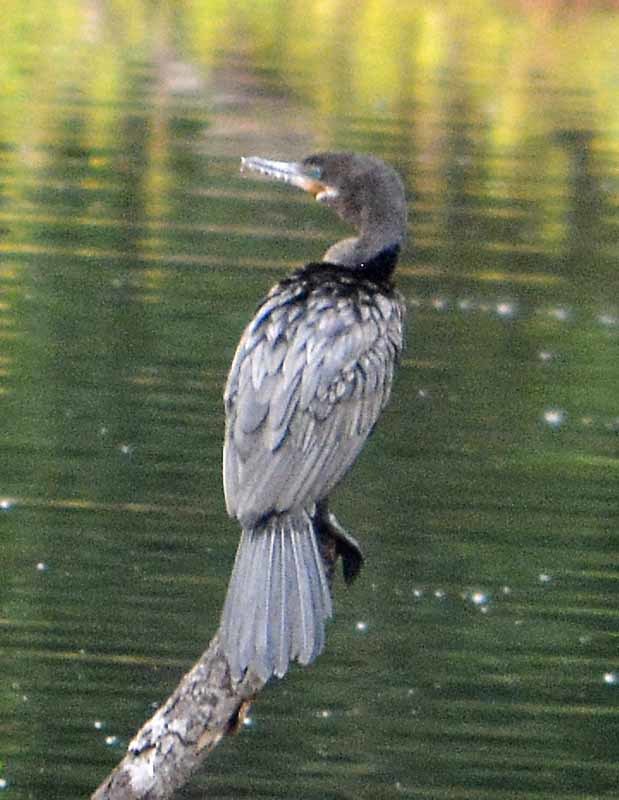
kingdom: Animalia
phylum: Chordata
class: Aves
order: Suliformes
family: Phalacrocoracidae
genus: Phalacrocorax
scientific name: Phalacrocorax brasilianus
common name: Neotropic cormorant
